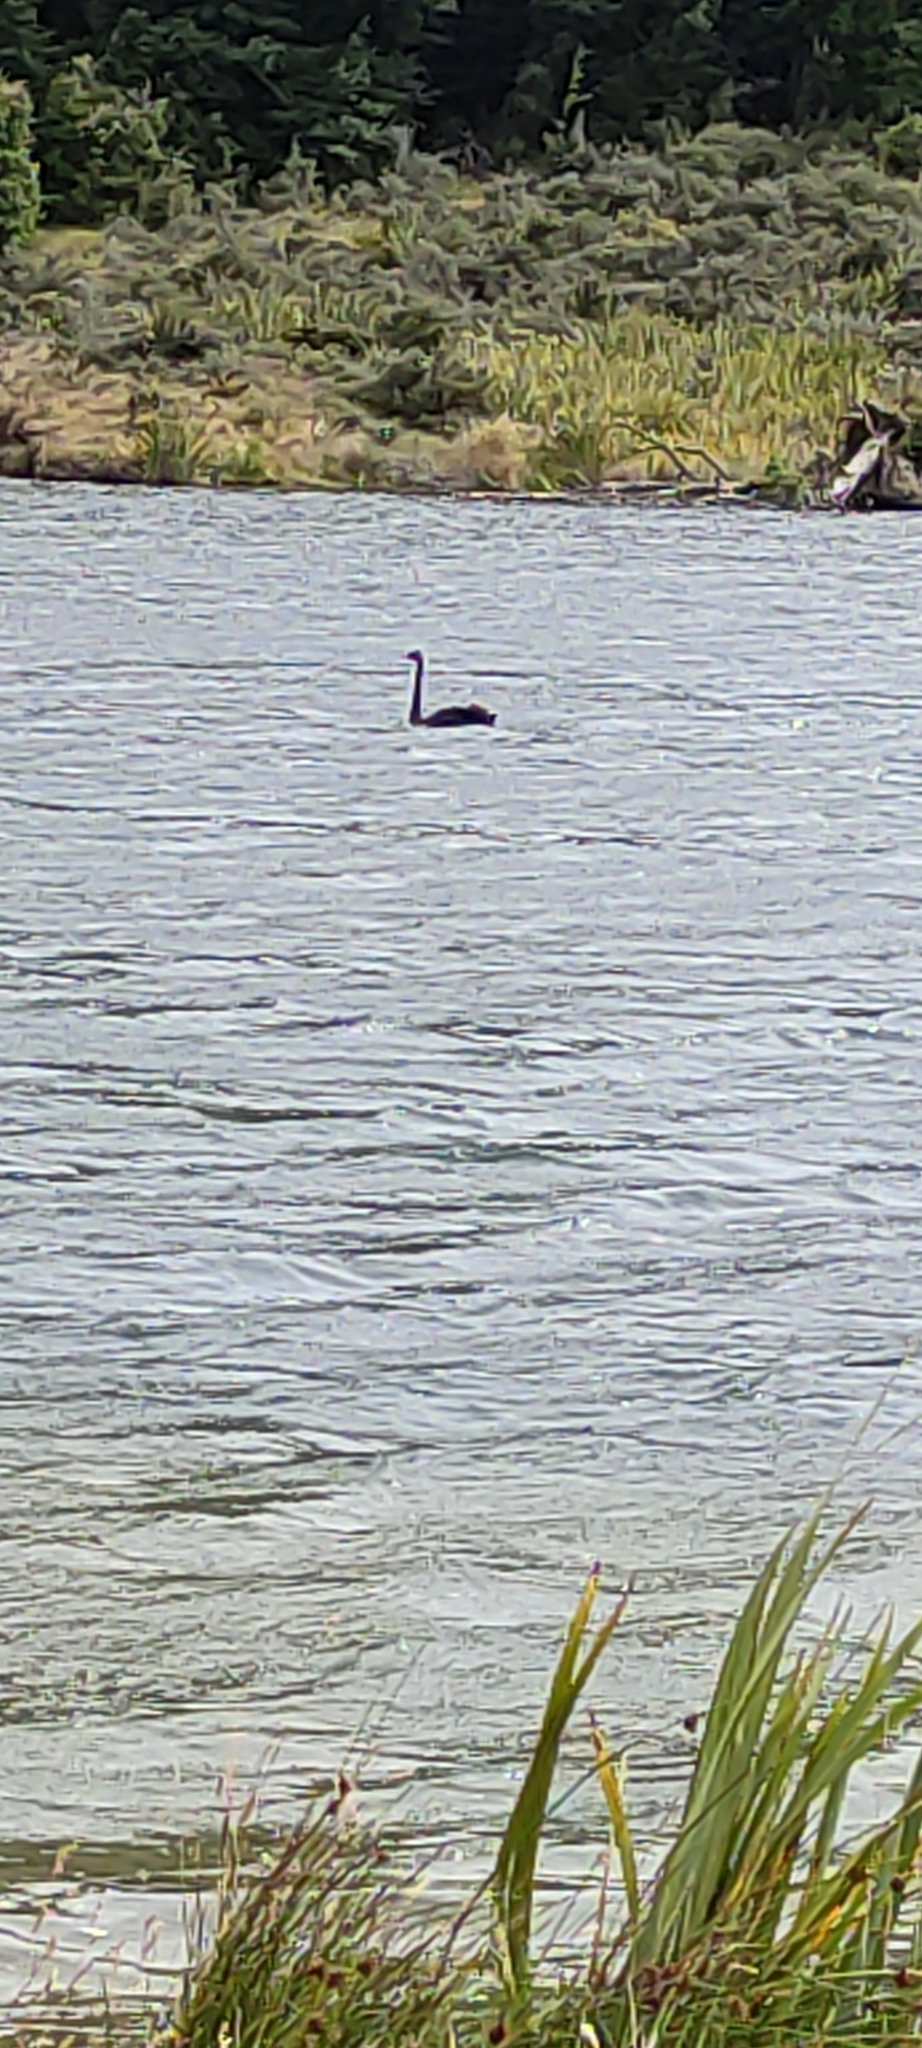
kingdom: Animalia
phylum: Chordata
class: Aves
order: Anseriformes
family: Anatidae
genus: Cygnus
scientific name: Cygnus atratus
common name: Black swan
